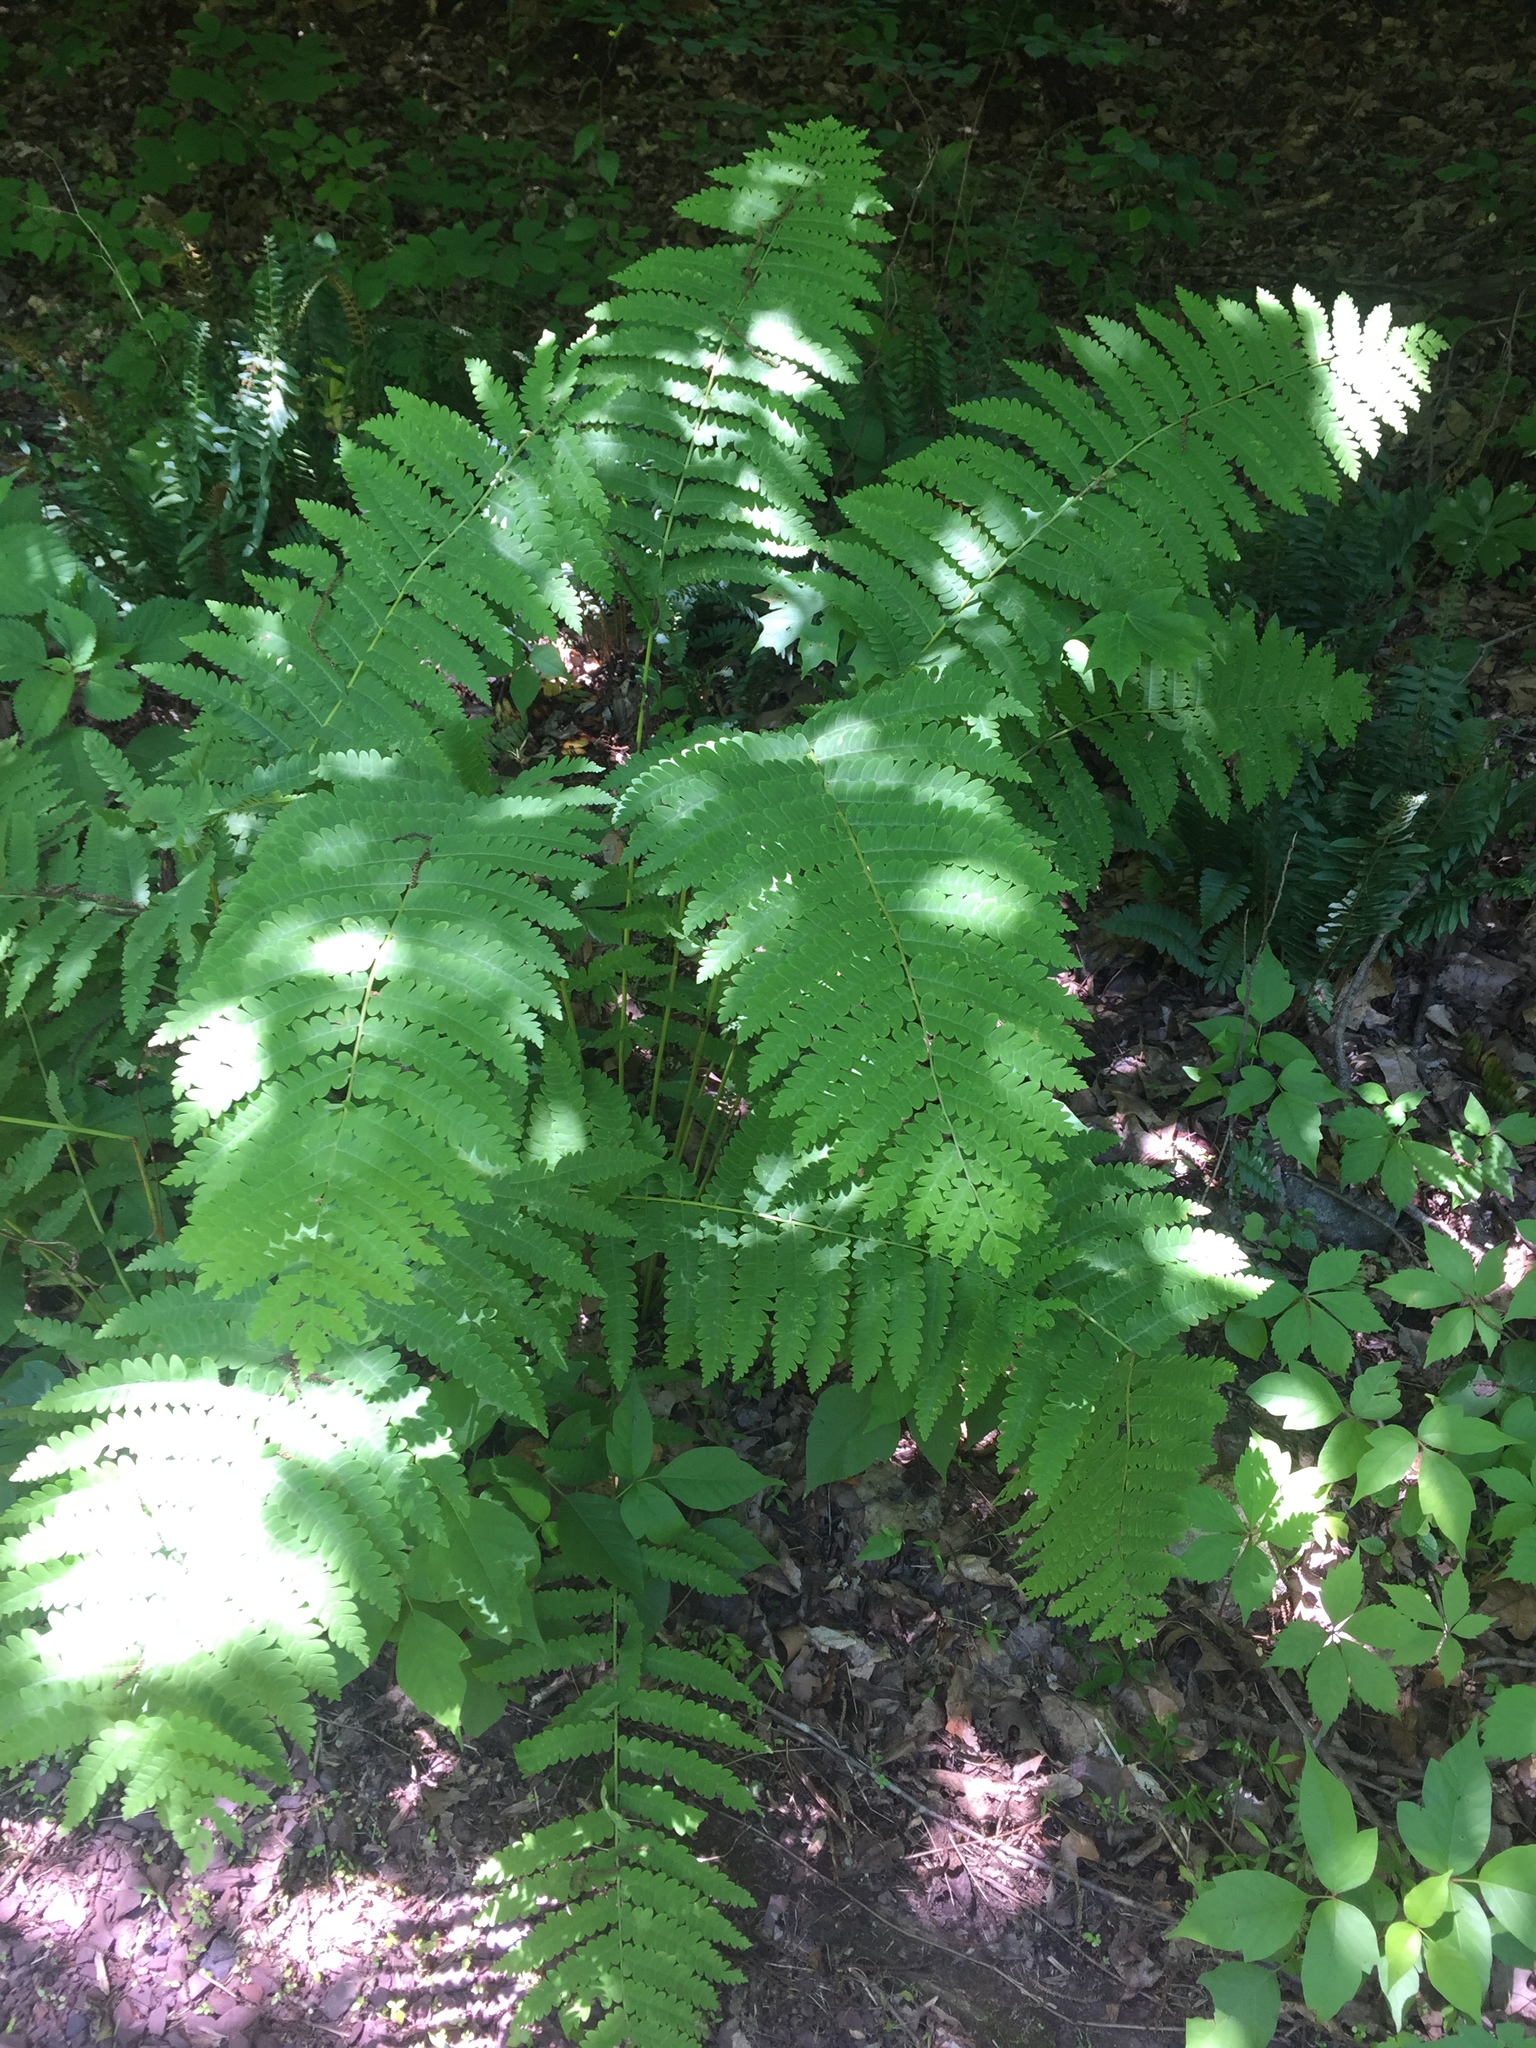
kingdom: Plantae
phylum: Tracheophyta
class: Polypodiopsida
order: Osmundales
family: Osmundaceae
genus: Claytosmunda
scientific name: Claytosmunda claytoniana
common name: Clayton's fern
